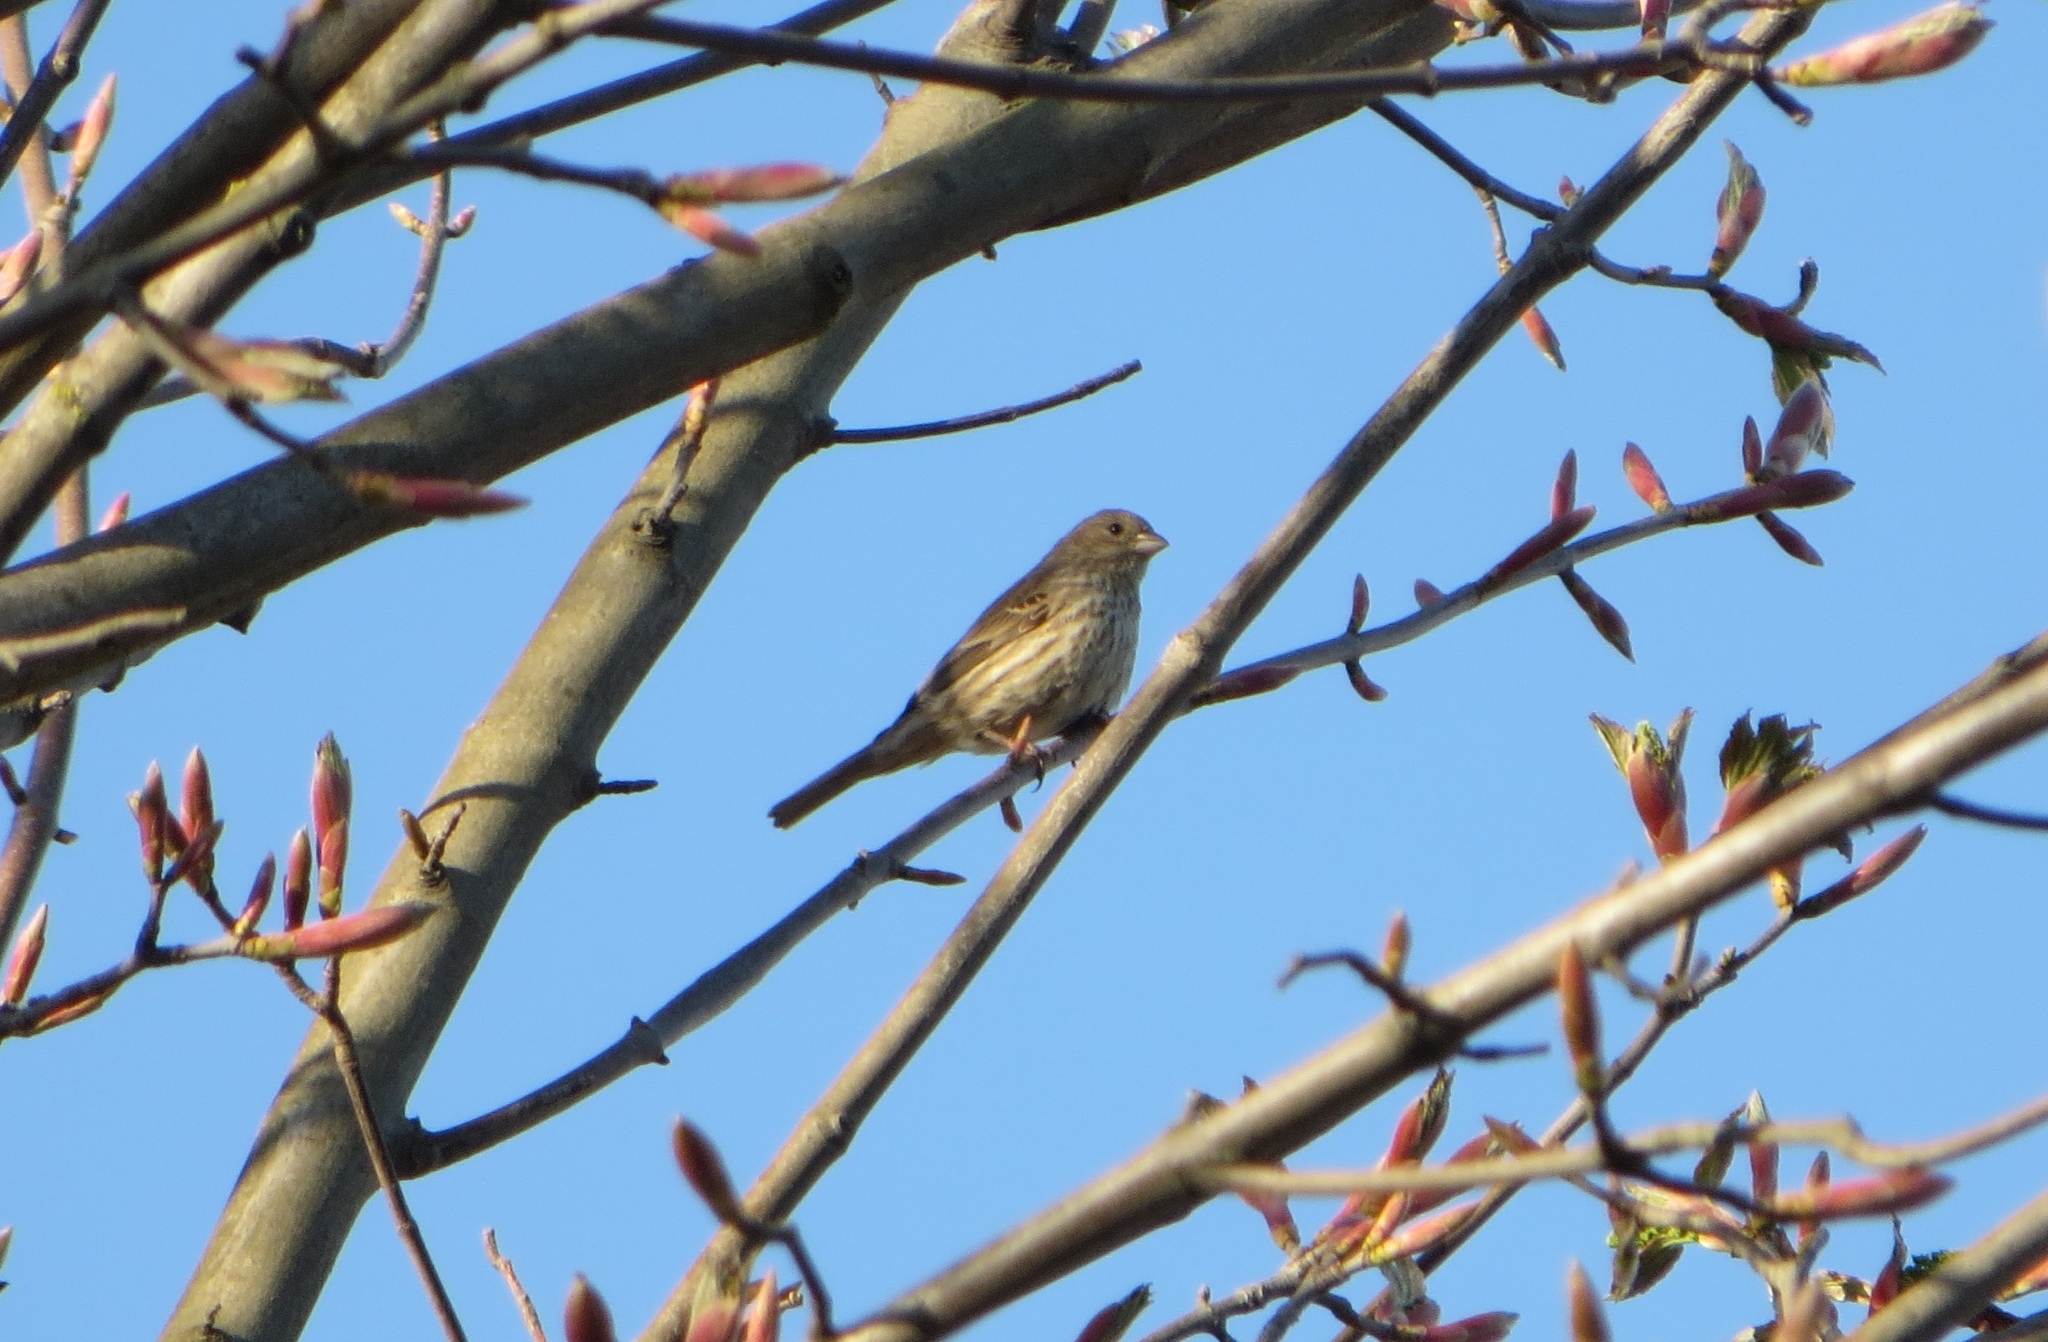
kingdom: Animalia
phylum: Chordata
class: Aves
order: Passeriformes
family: Fringillidae
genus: Haemorhous
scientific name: Haemorhous mexicanus
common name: House finch
